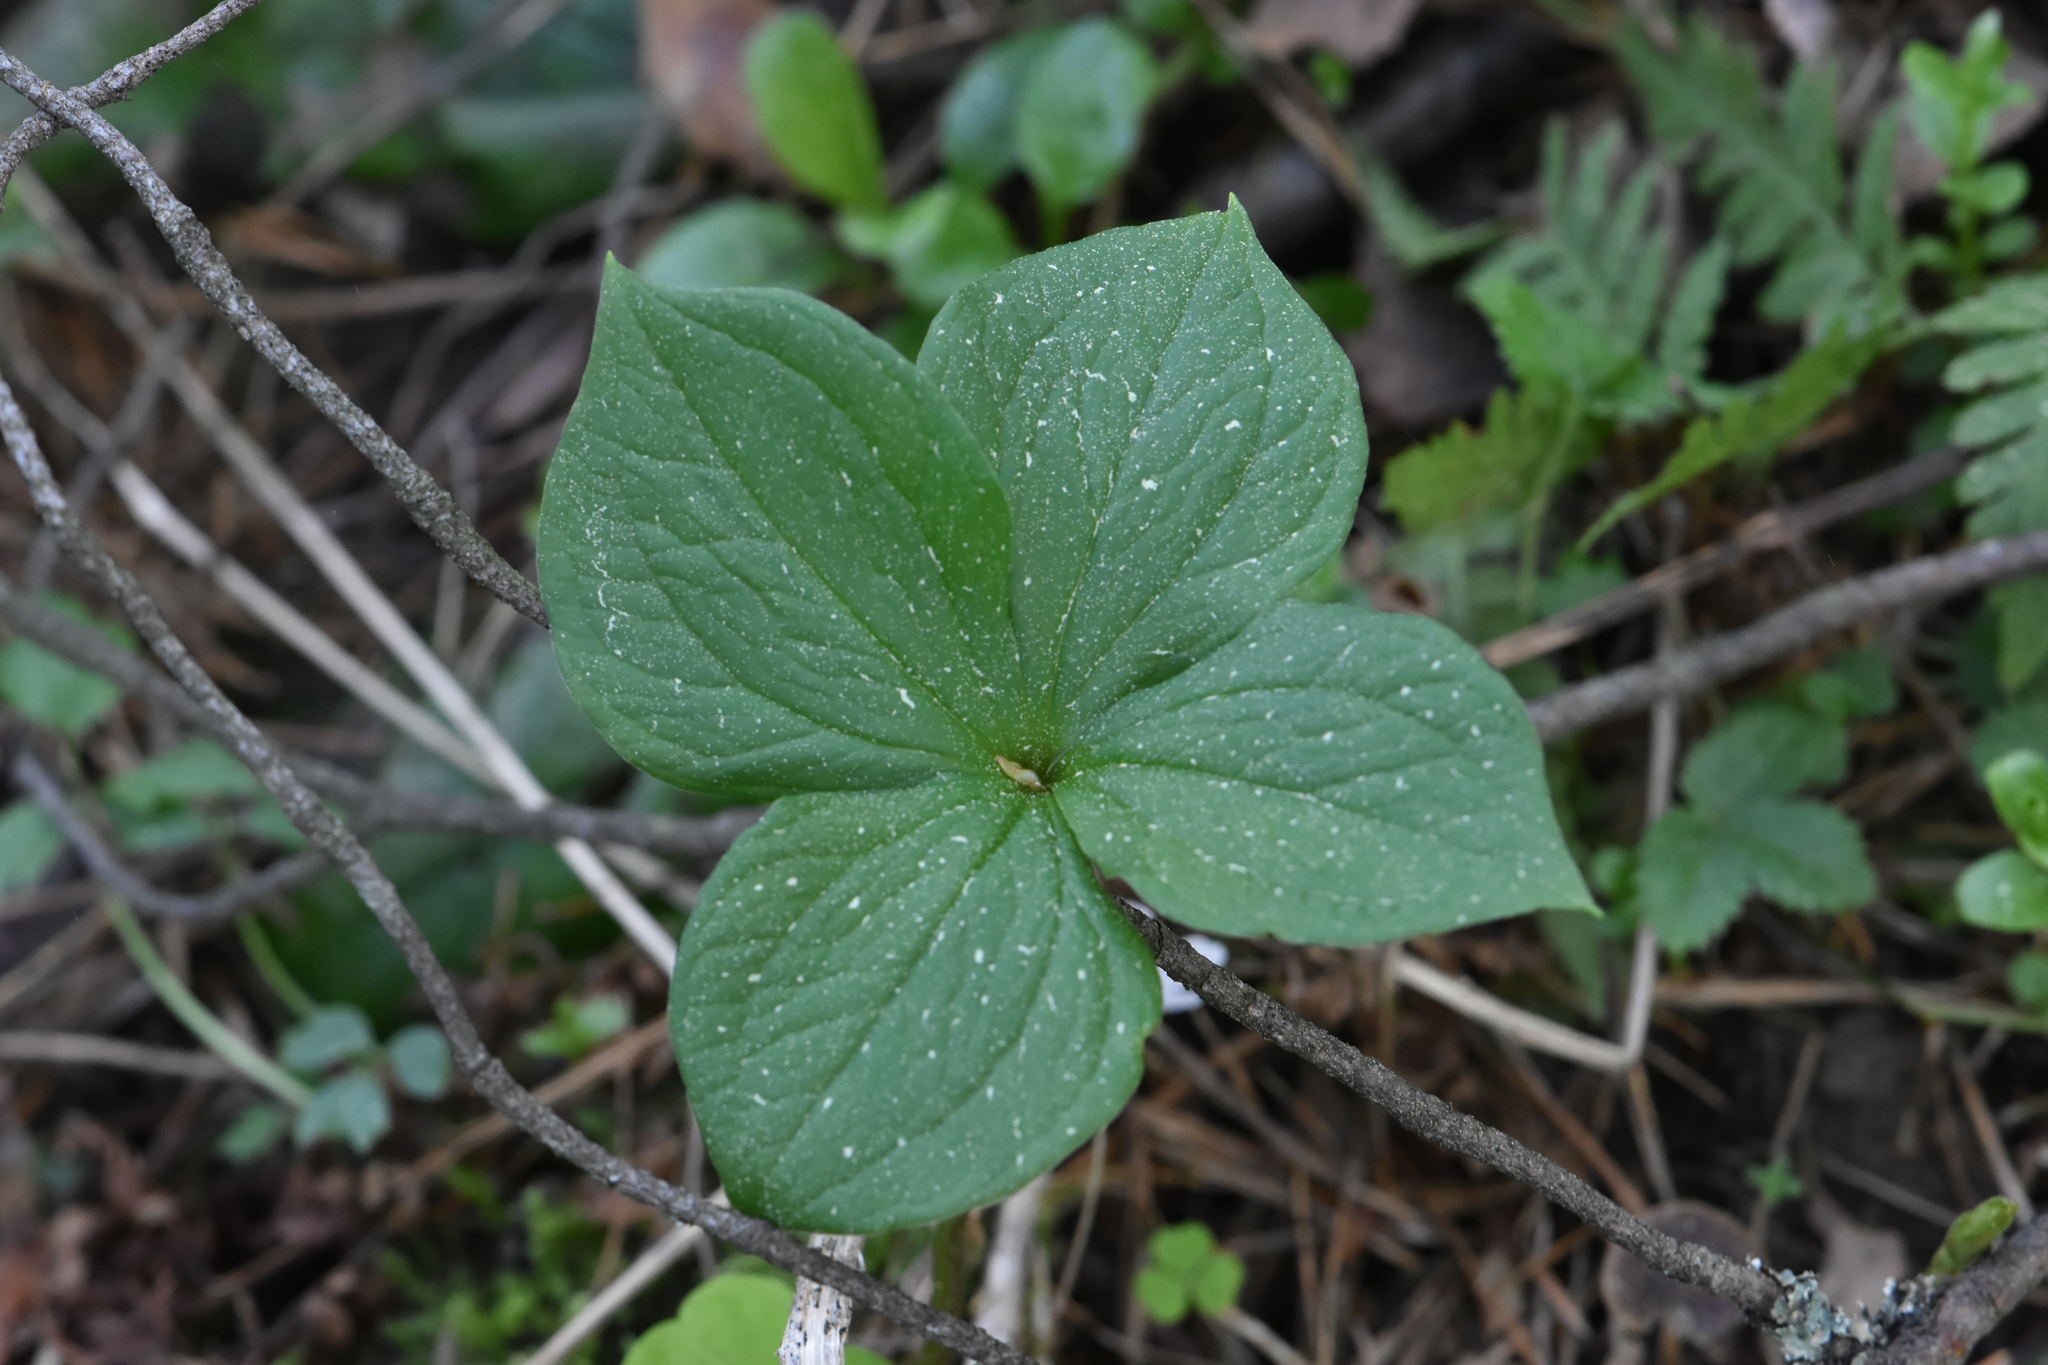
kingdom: Plantae
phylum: Tracheophyta
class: Liliopsida
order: Liliales
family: Melanthiaceae
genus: Paris
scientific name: Paris quadrifolia
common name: Herb-paris
